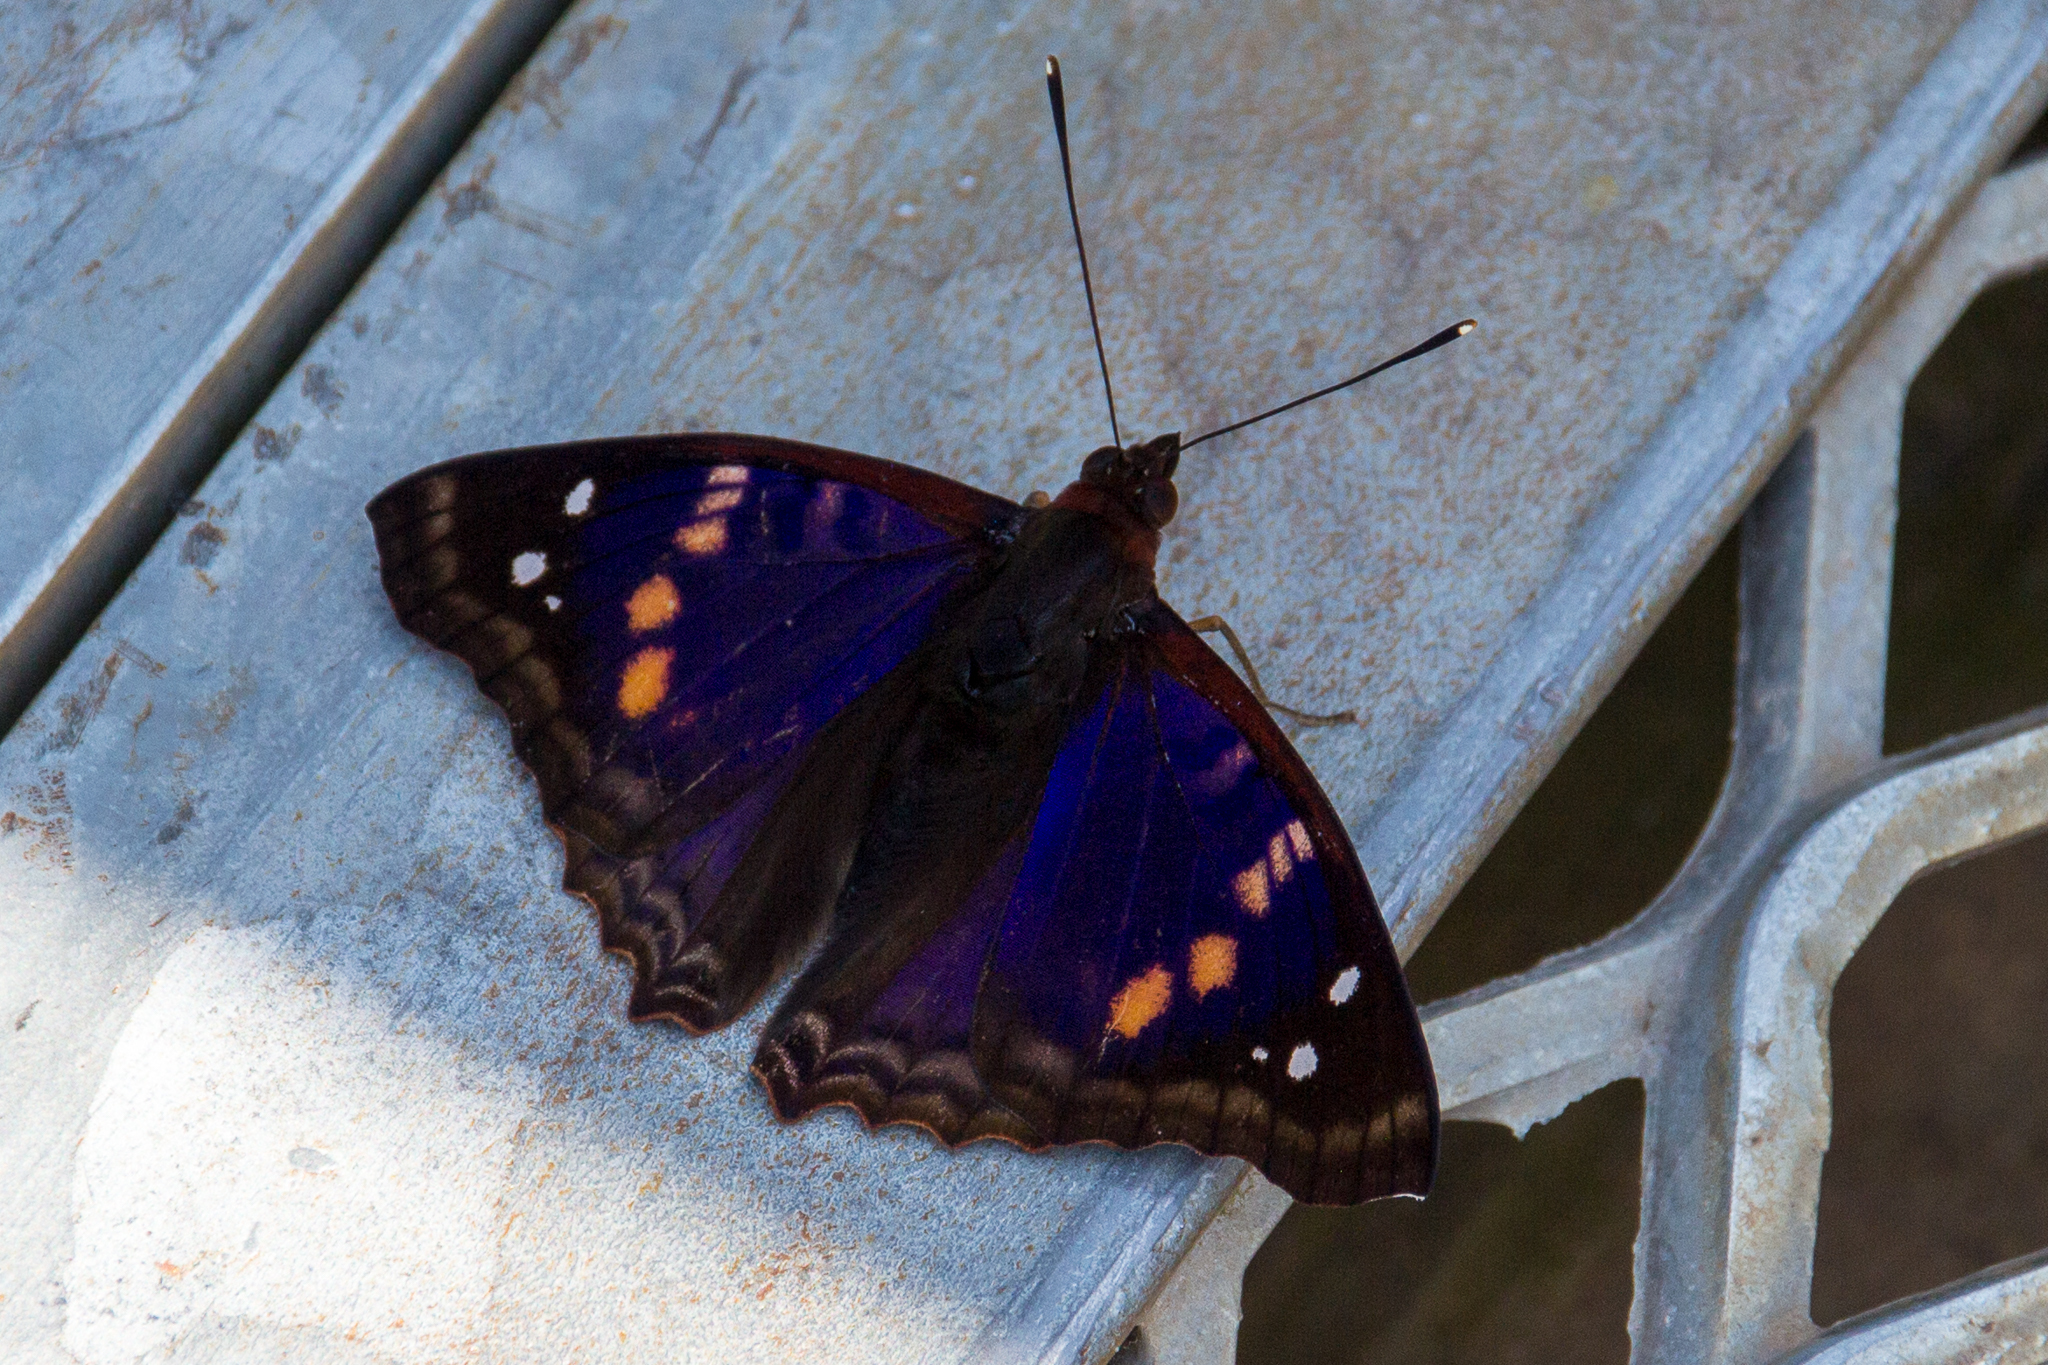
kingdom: Animalia
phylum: Arthropoda
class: Insecta
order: Lepidoptera
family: Nymphalidae
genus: Doxocopa
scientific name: Doxocopa agathina
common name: Agathina emperor
